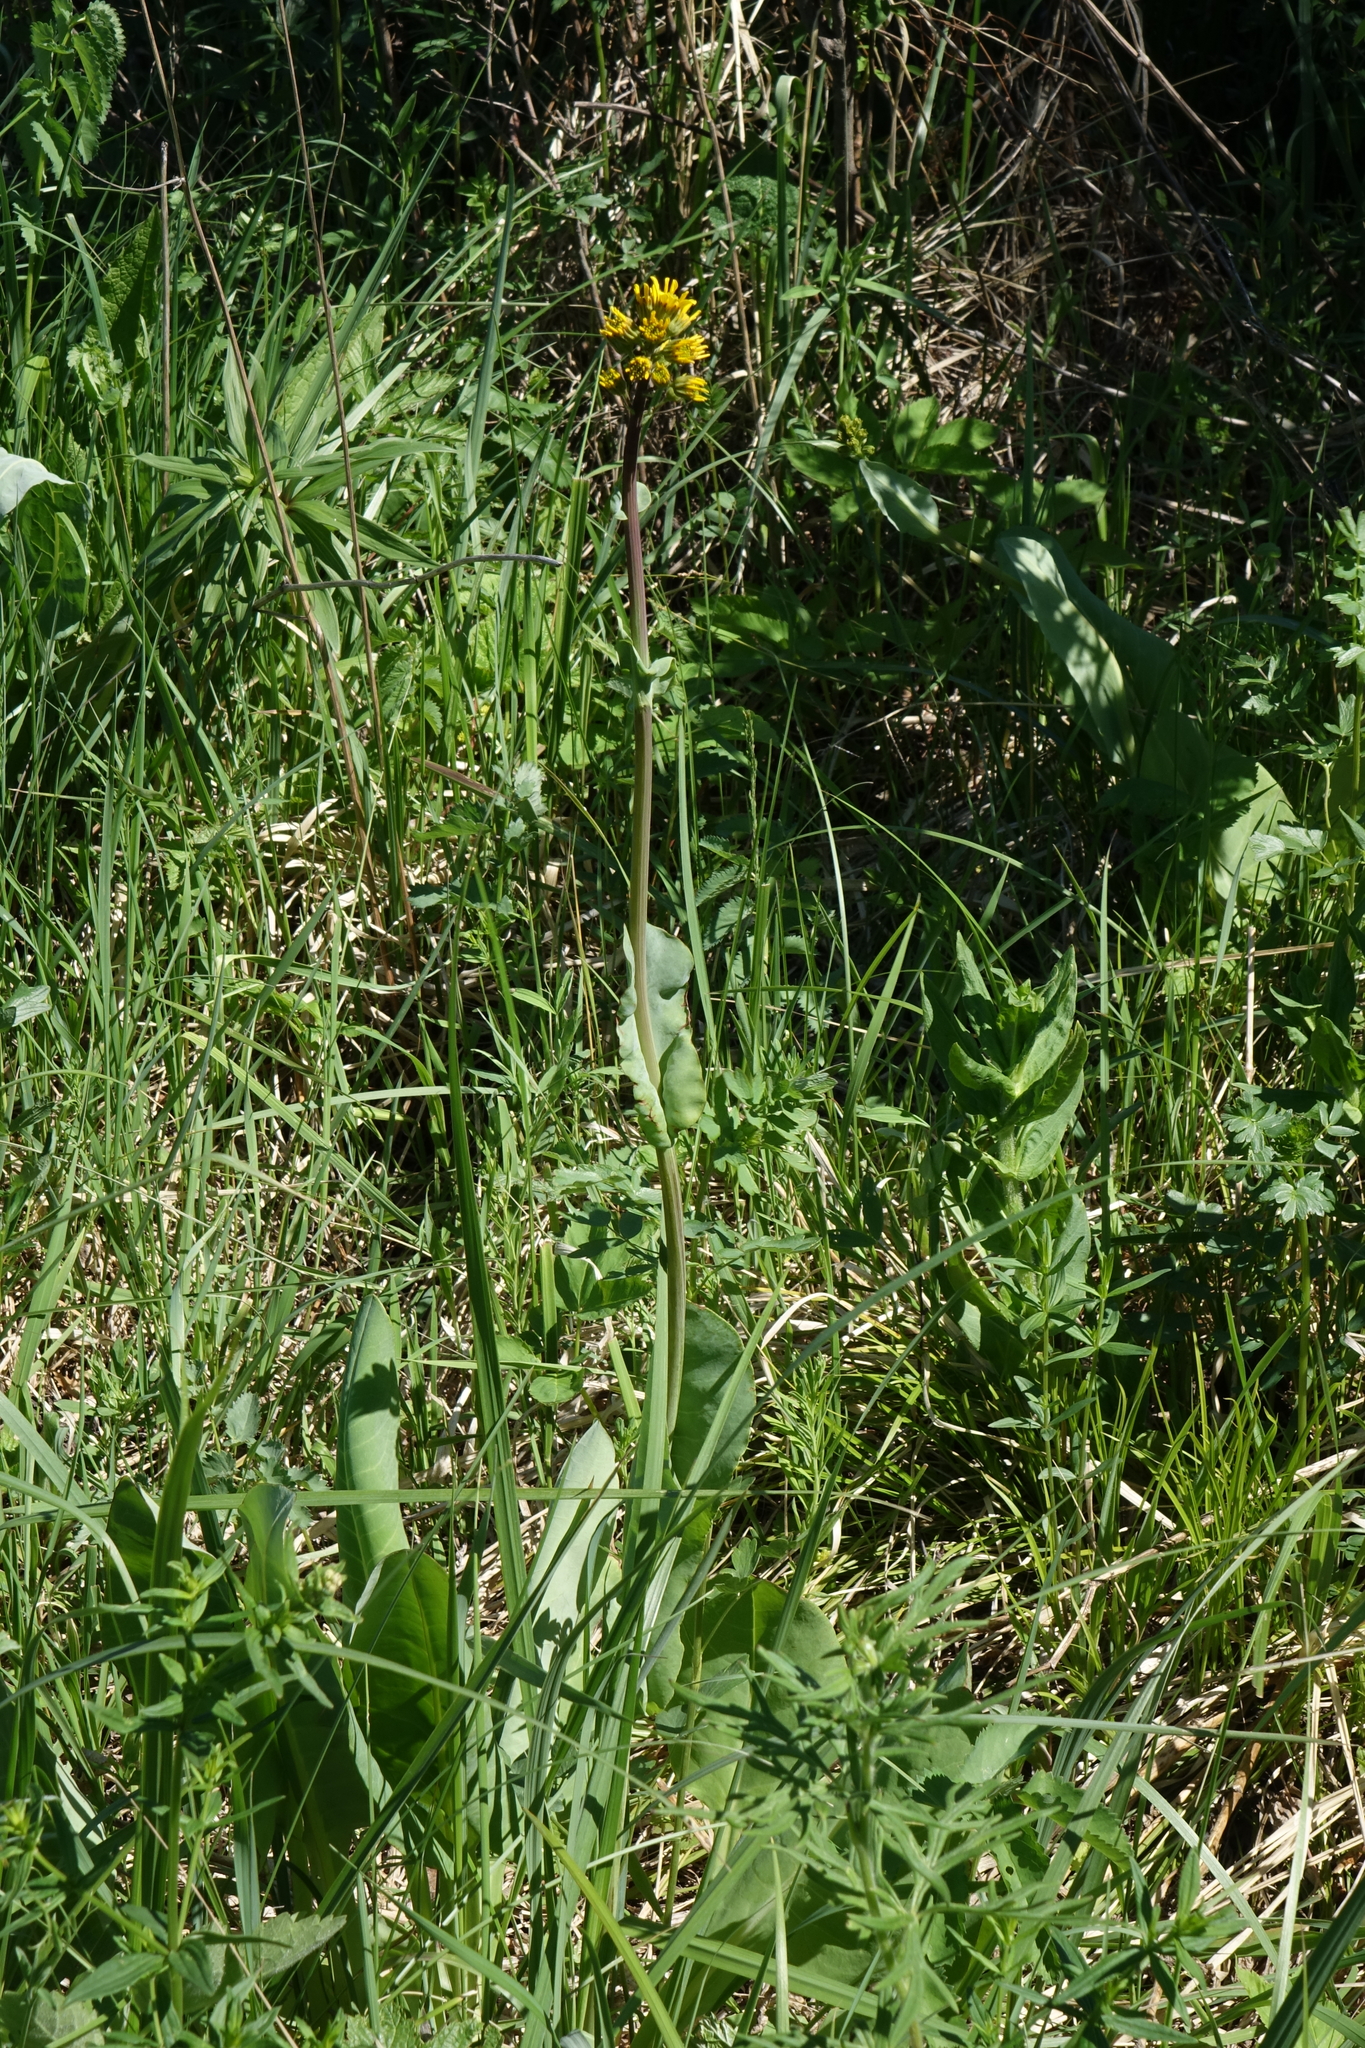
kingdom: Plantae
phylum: Tracheophyta
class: Magnoliopsida
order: Asterales
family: Asteraceae
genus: Ligularia
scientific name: Ligularia glauca
